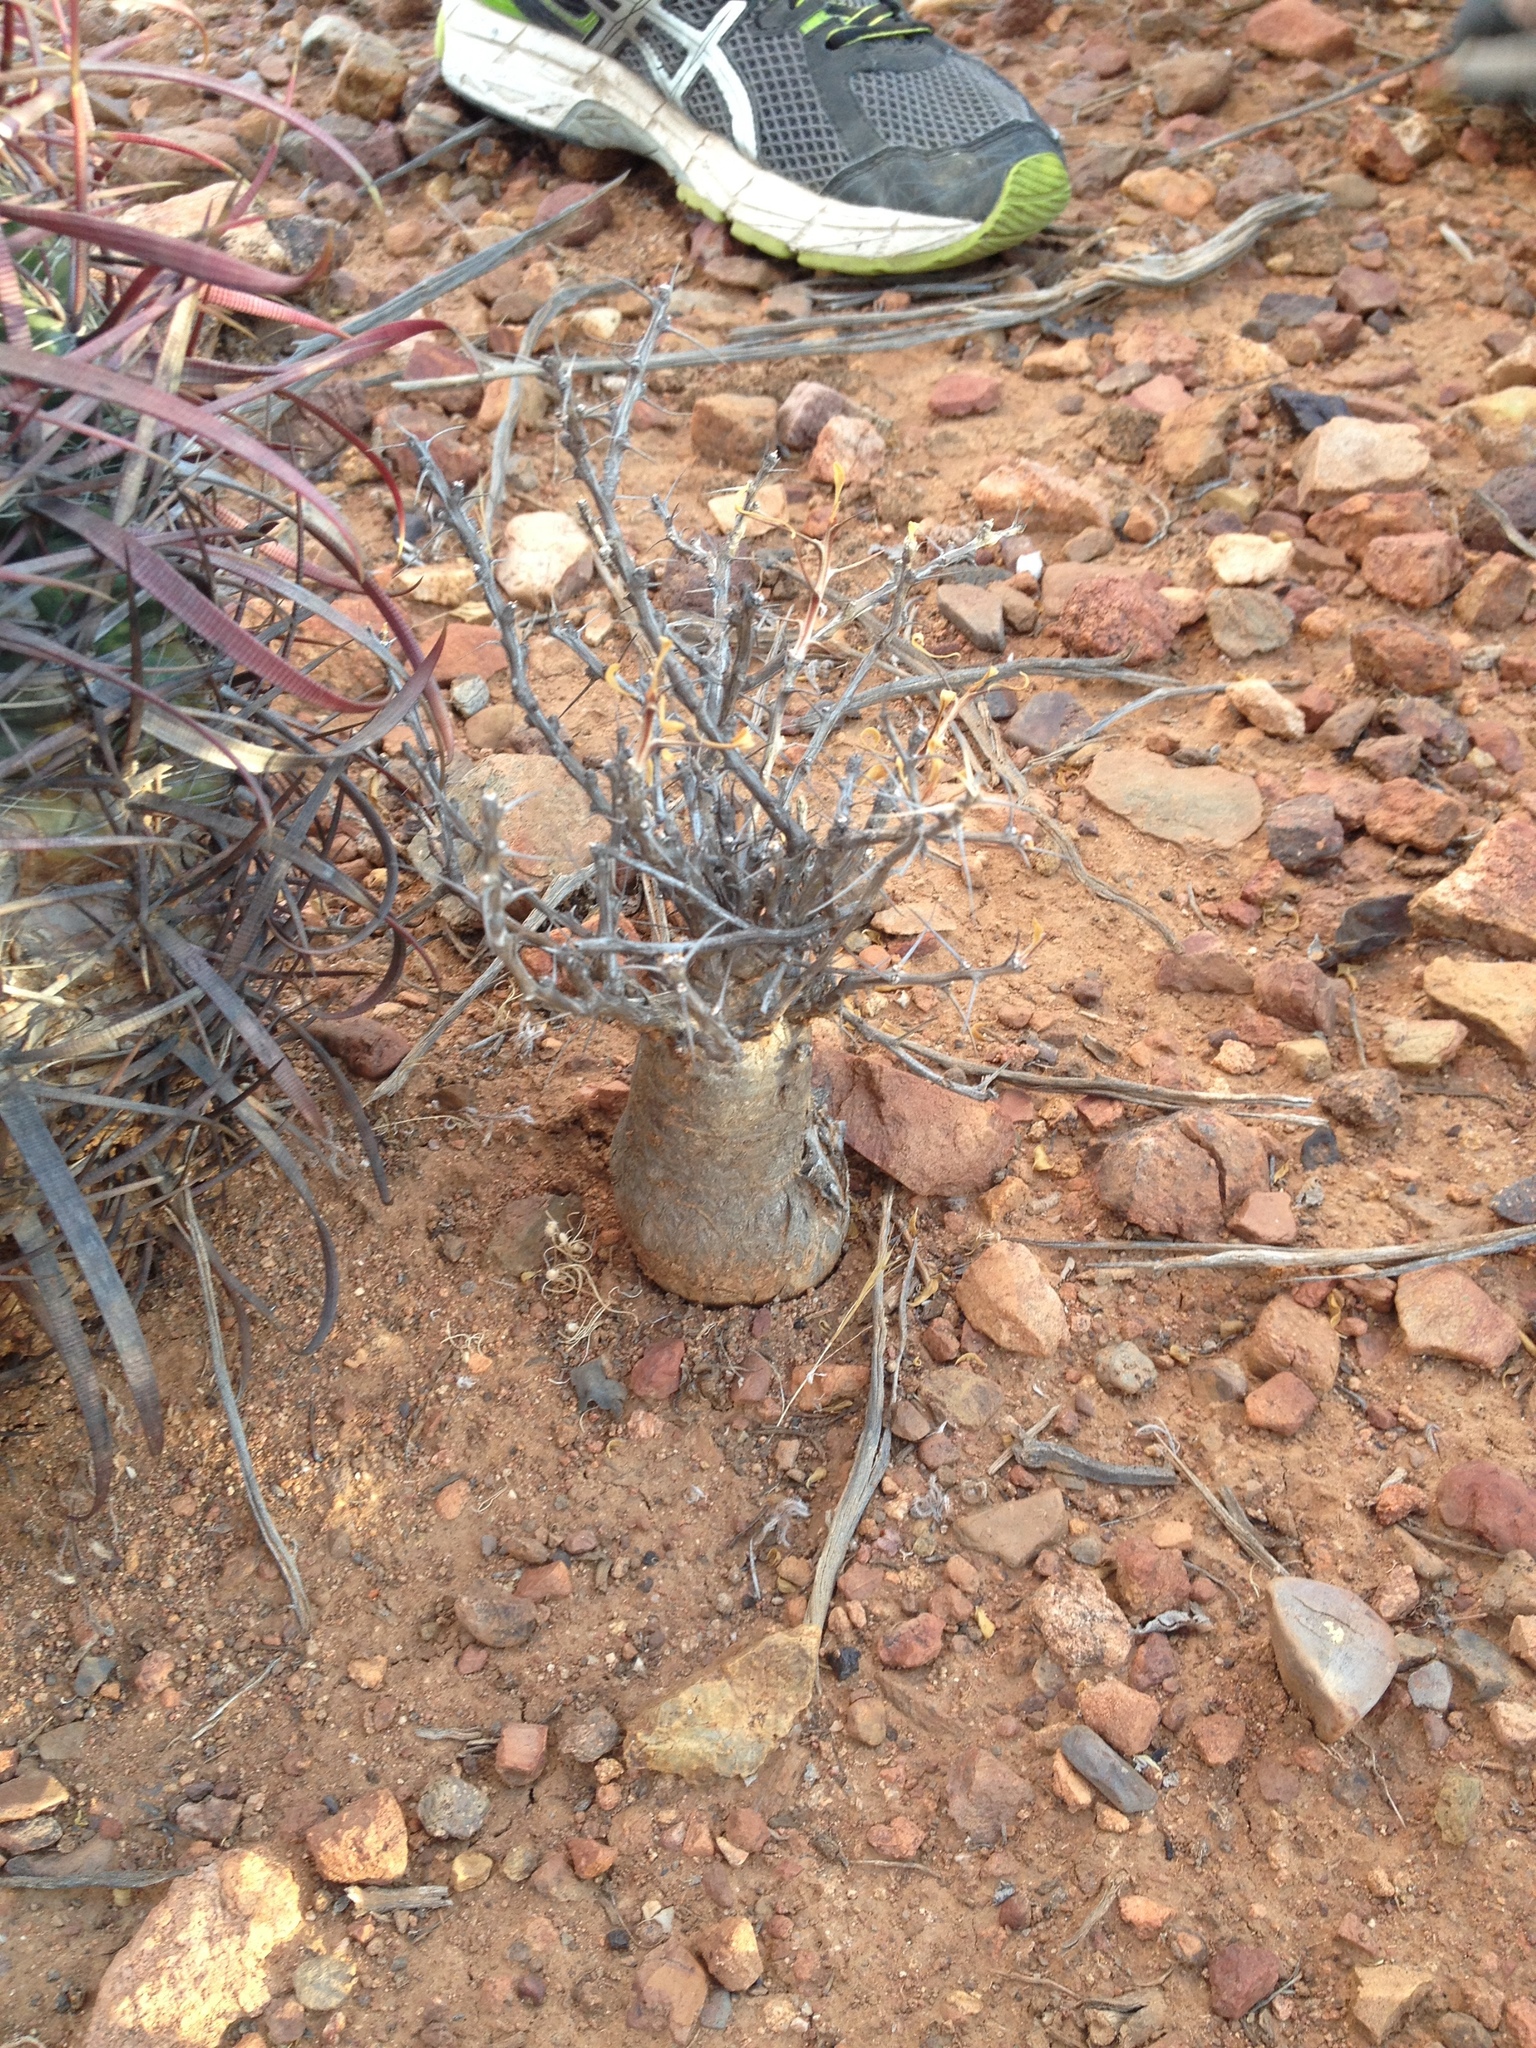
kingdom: Plantae
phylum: Tracheophyta
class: Magnoliopsida
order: Ericales
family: Fouquieriaceae
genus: Fouquieria
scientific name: Fouquieria columnaris
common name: Boojumtree
